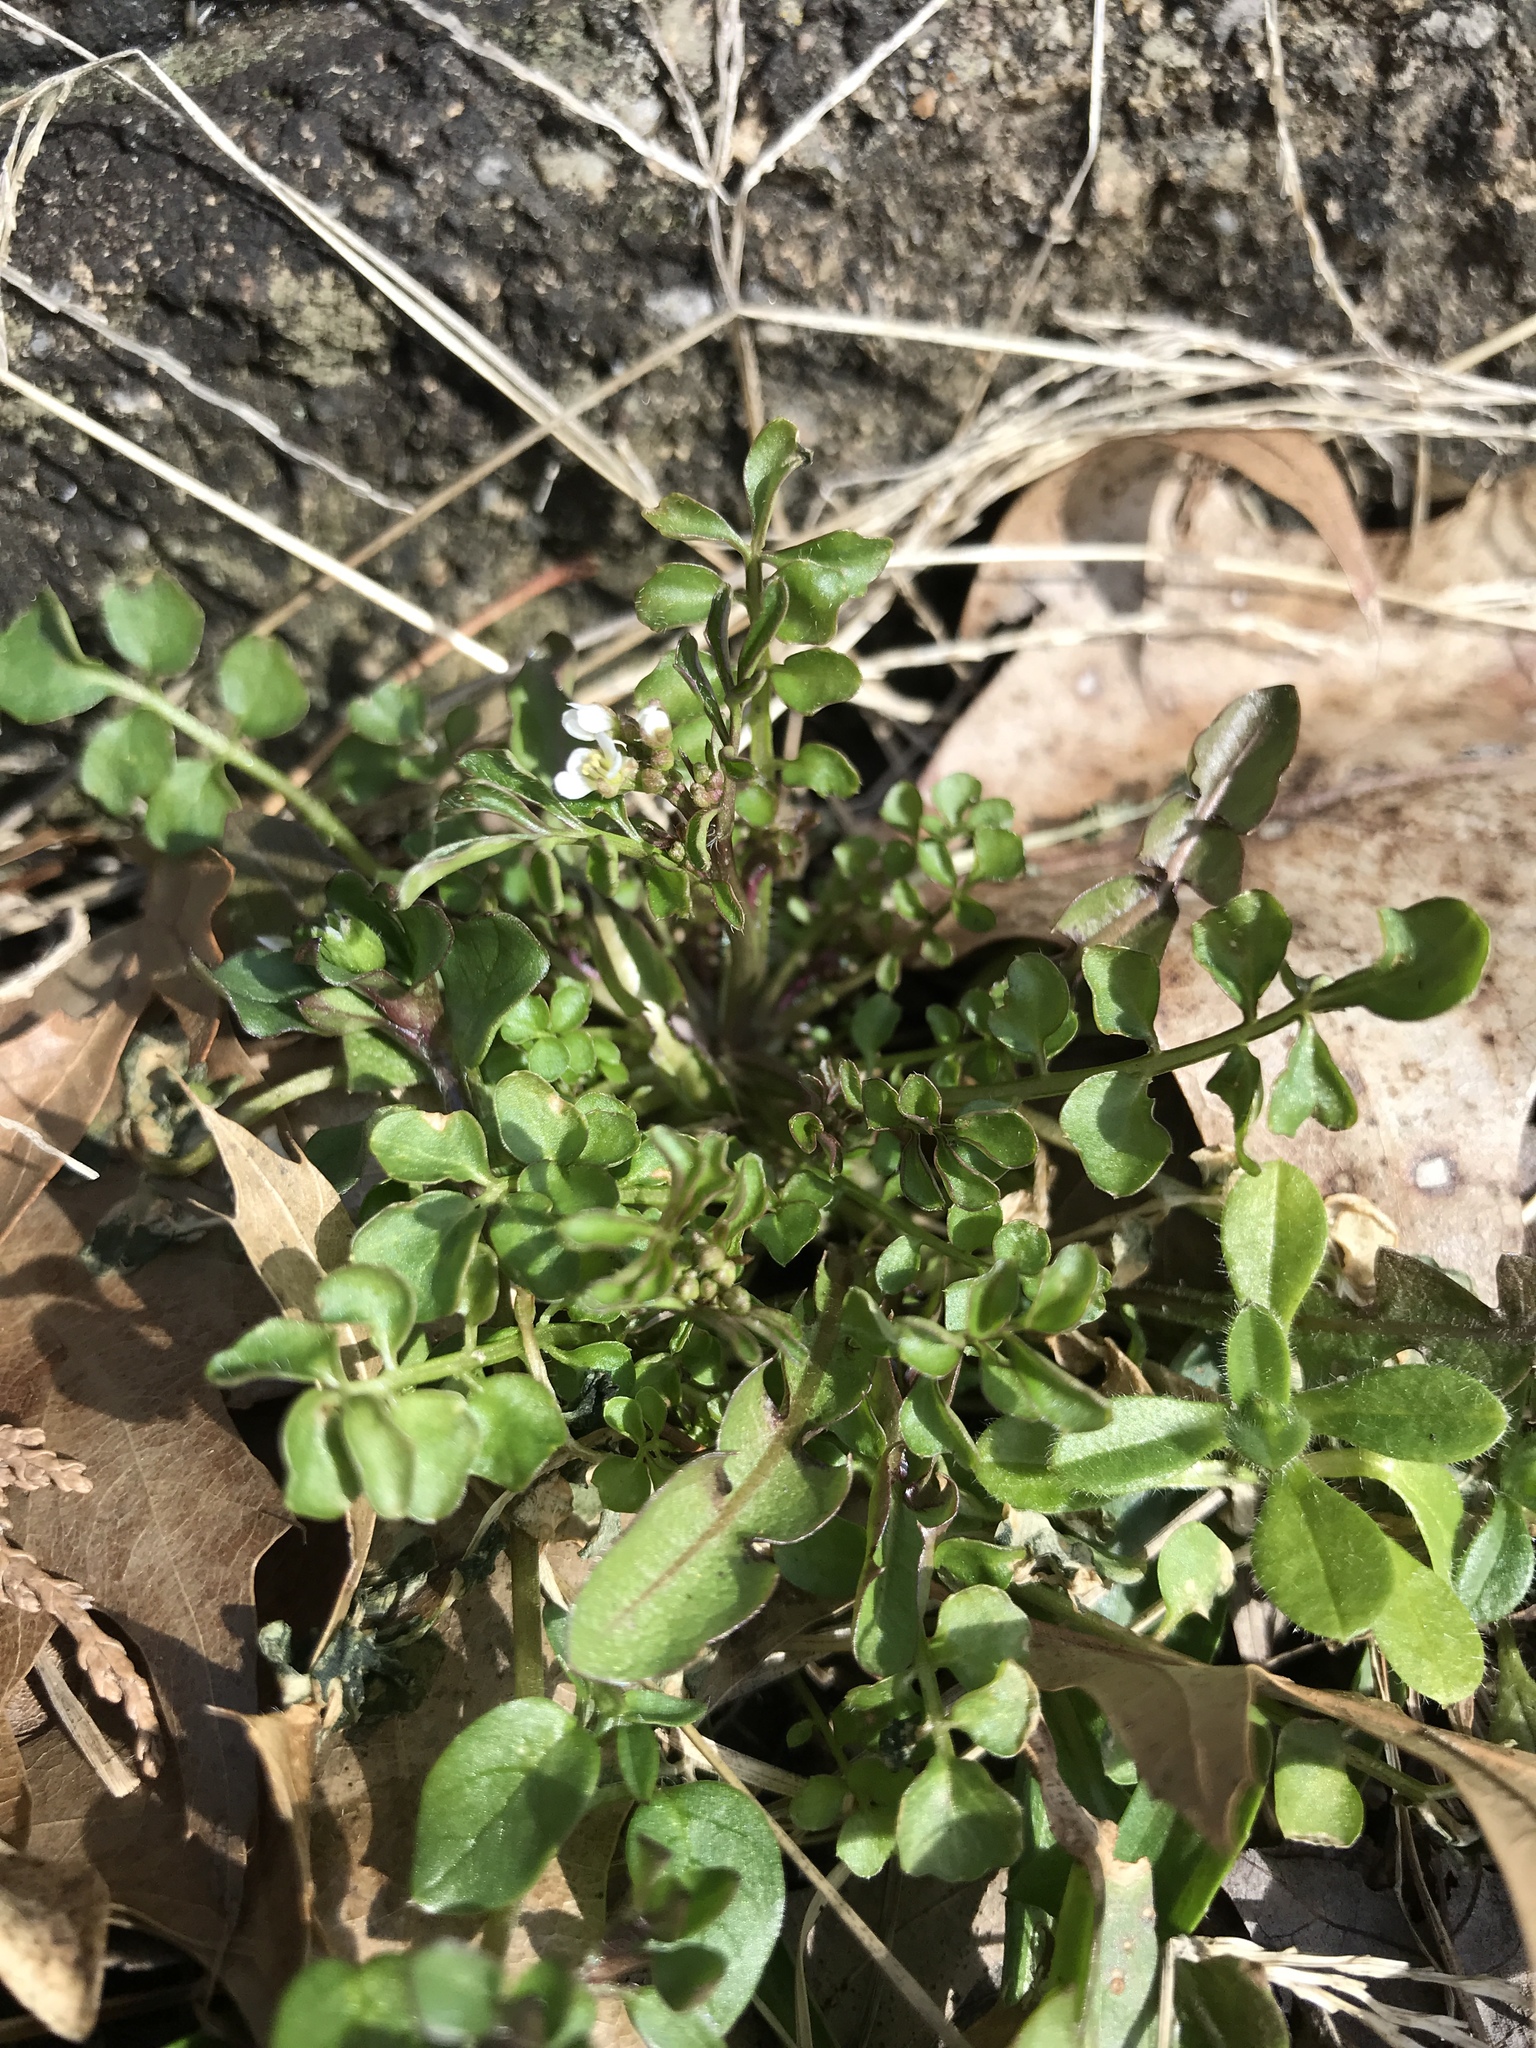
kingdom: Plantae
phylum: Tracheophyta
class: Magnoliopsida
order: Brassicales
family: Brassicaceae
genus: Cardamine
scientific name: Cardamine hirsuta
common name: Hairy bittercress
